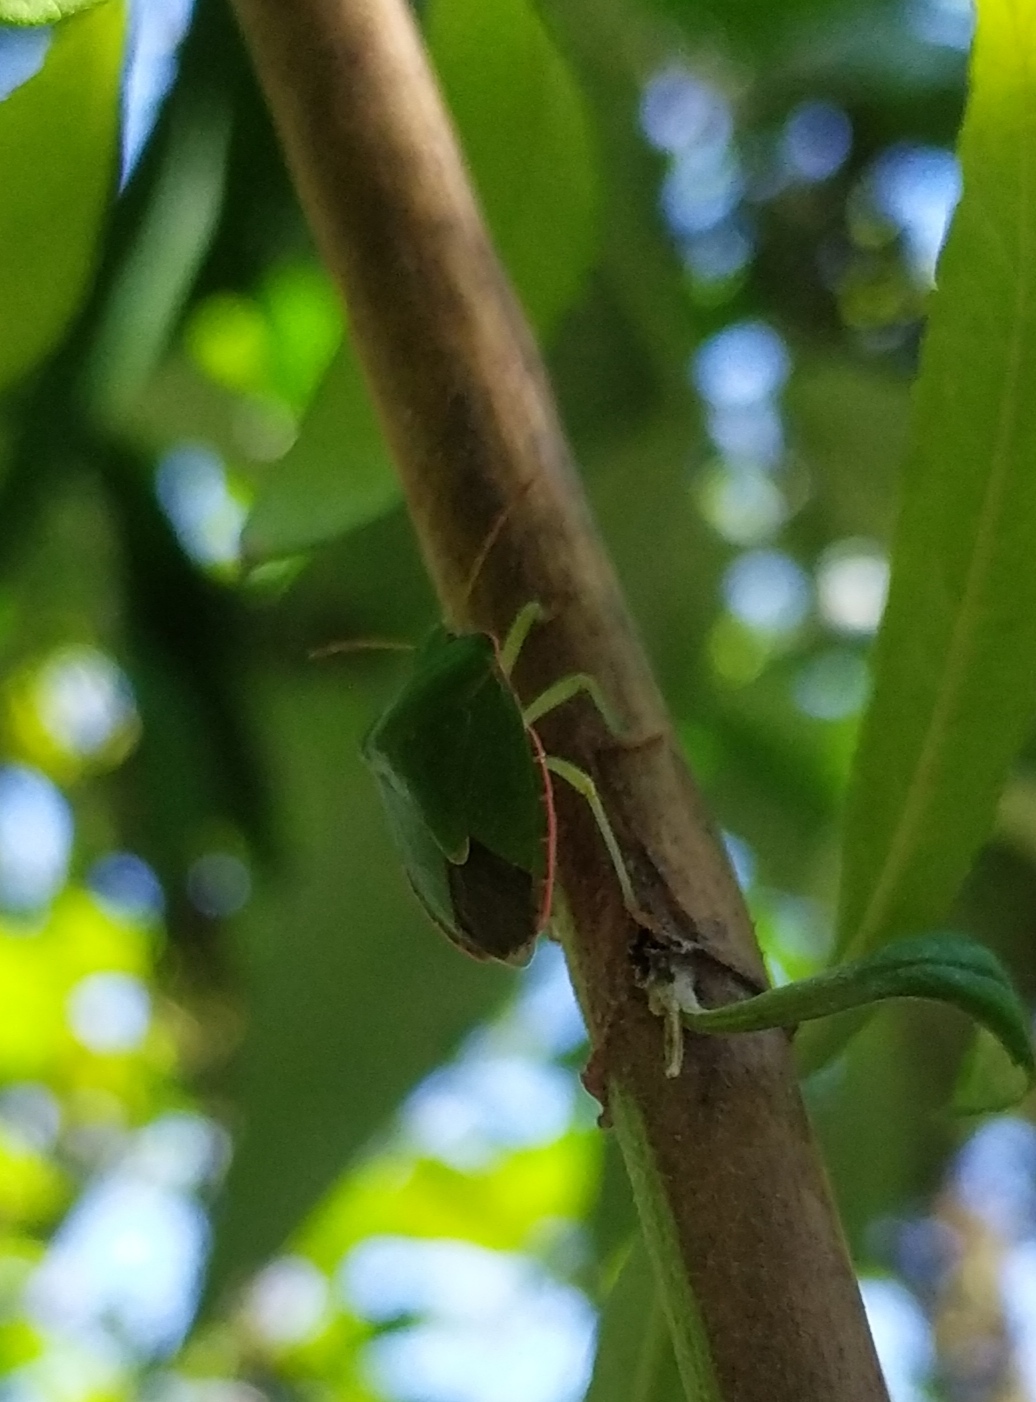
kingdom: Animalia
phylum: Arthropoda
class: Insecta
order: Hemiptera
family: Pentatomidae
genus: Palomena
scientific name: Palomena prasina
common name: Green shieldbug
